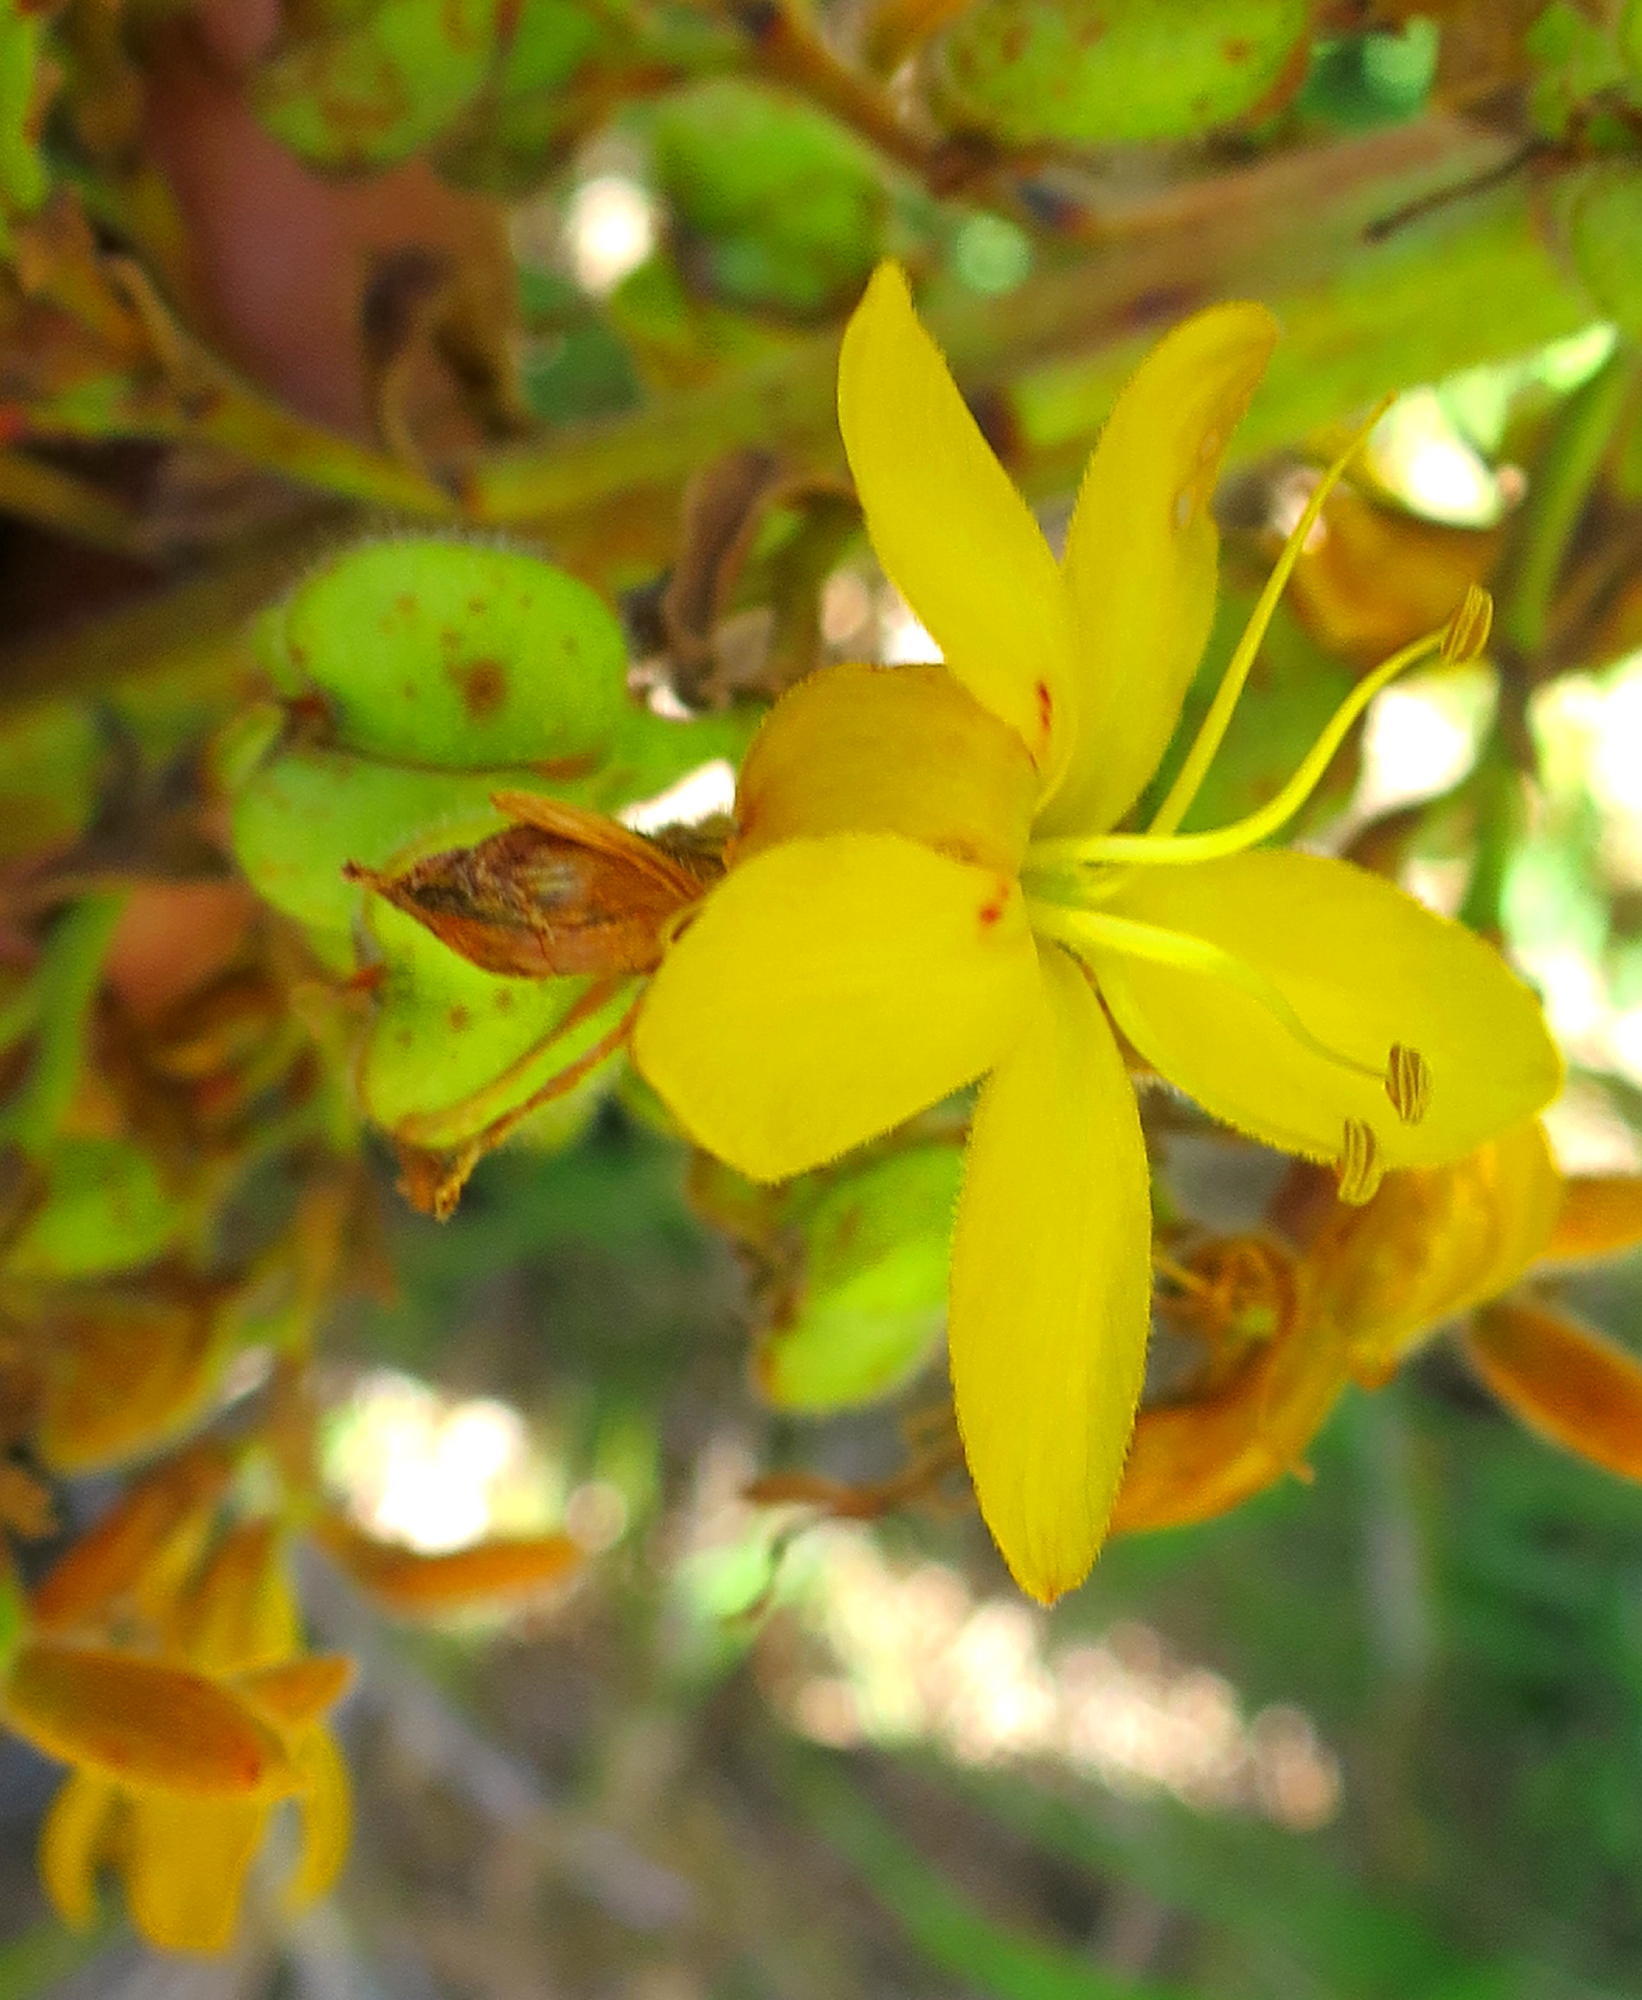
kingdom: Plantae
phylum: Tracheophyta
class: Liliopsida
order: Commelinales
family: Haemodoraceae
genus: Wachendorfia
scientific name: Wachendorfia thyrsiflora
